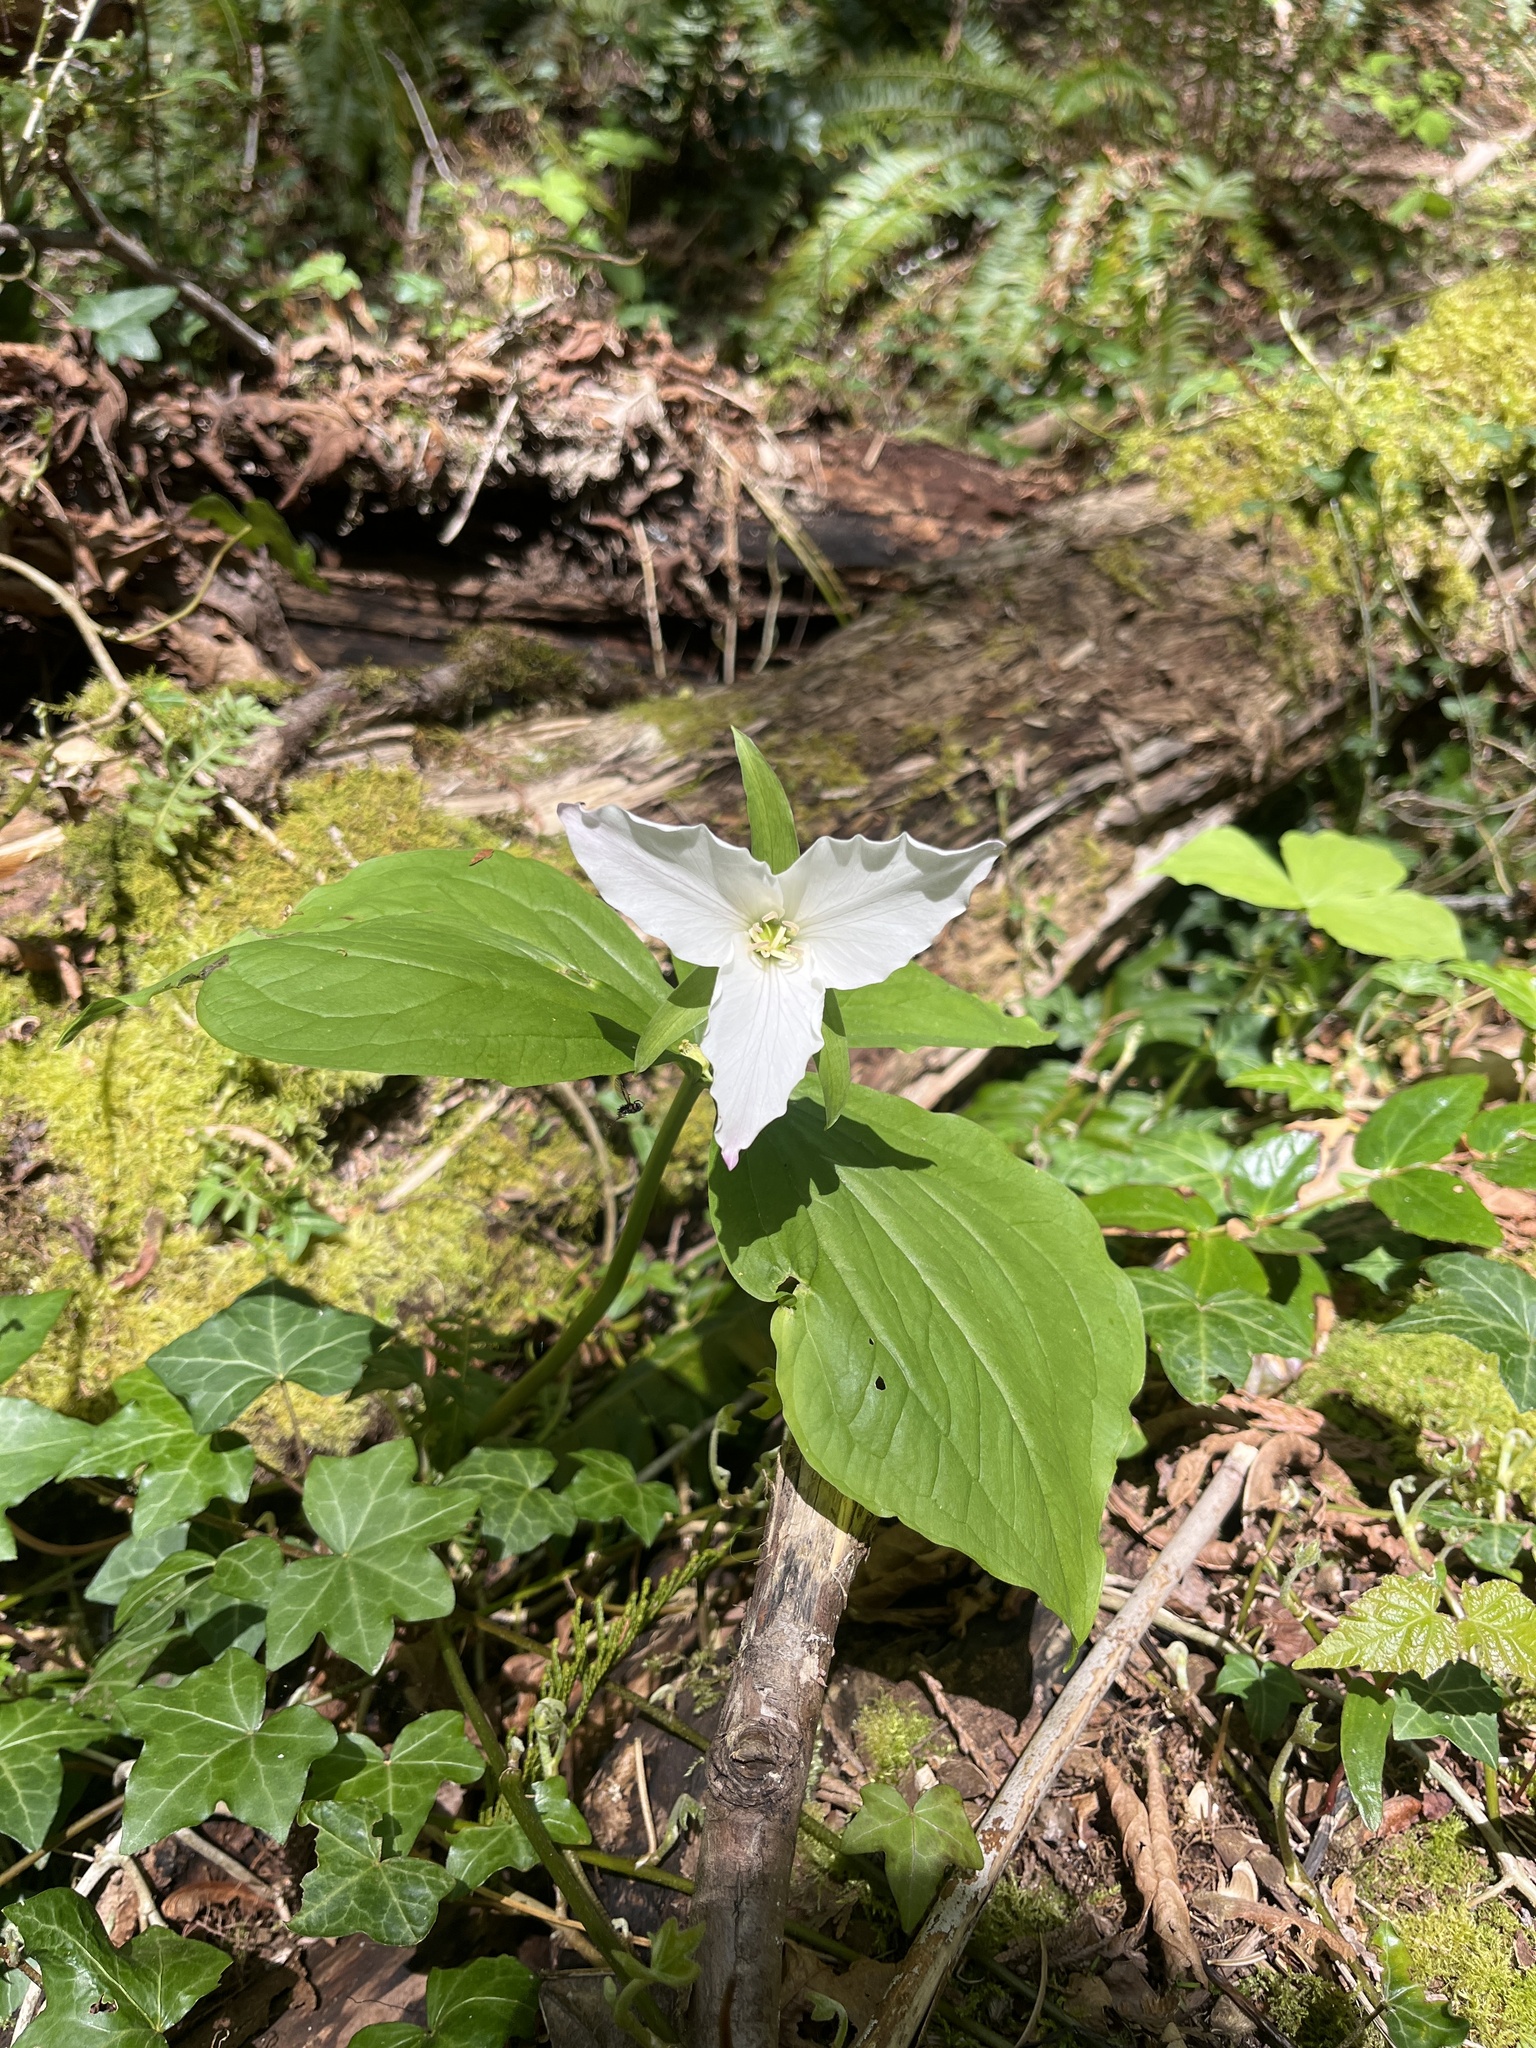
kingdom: Plantae
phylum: Tracheophyta
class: Liliopsida
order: Liliales
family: Melanthiaceae
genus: Trillium
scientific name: Trillium ovatum
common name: Pacific trillium
